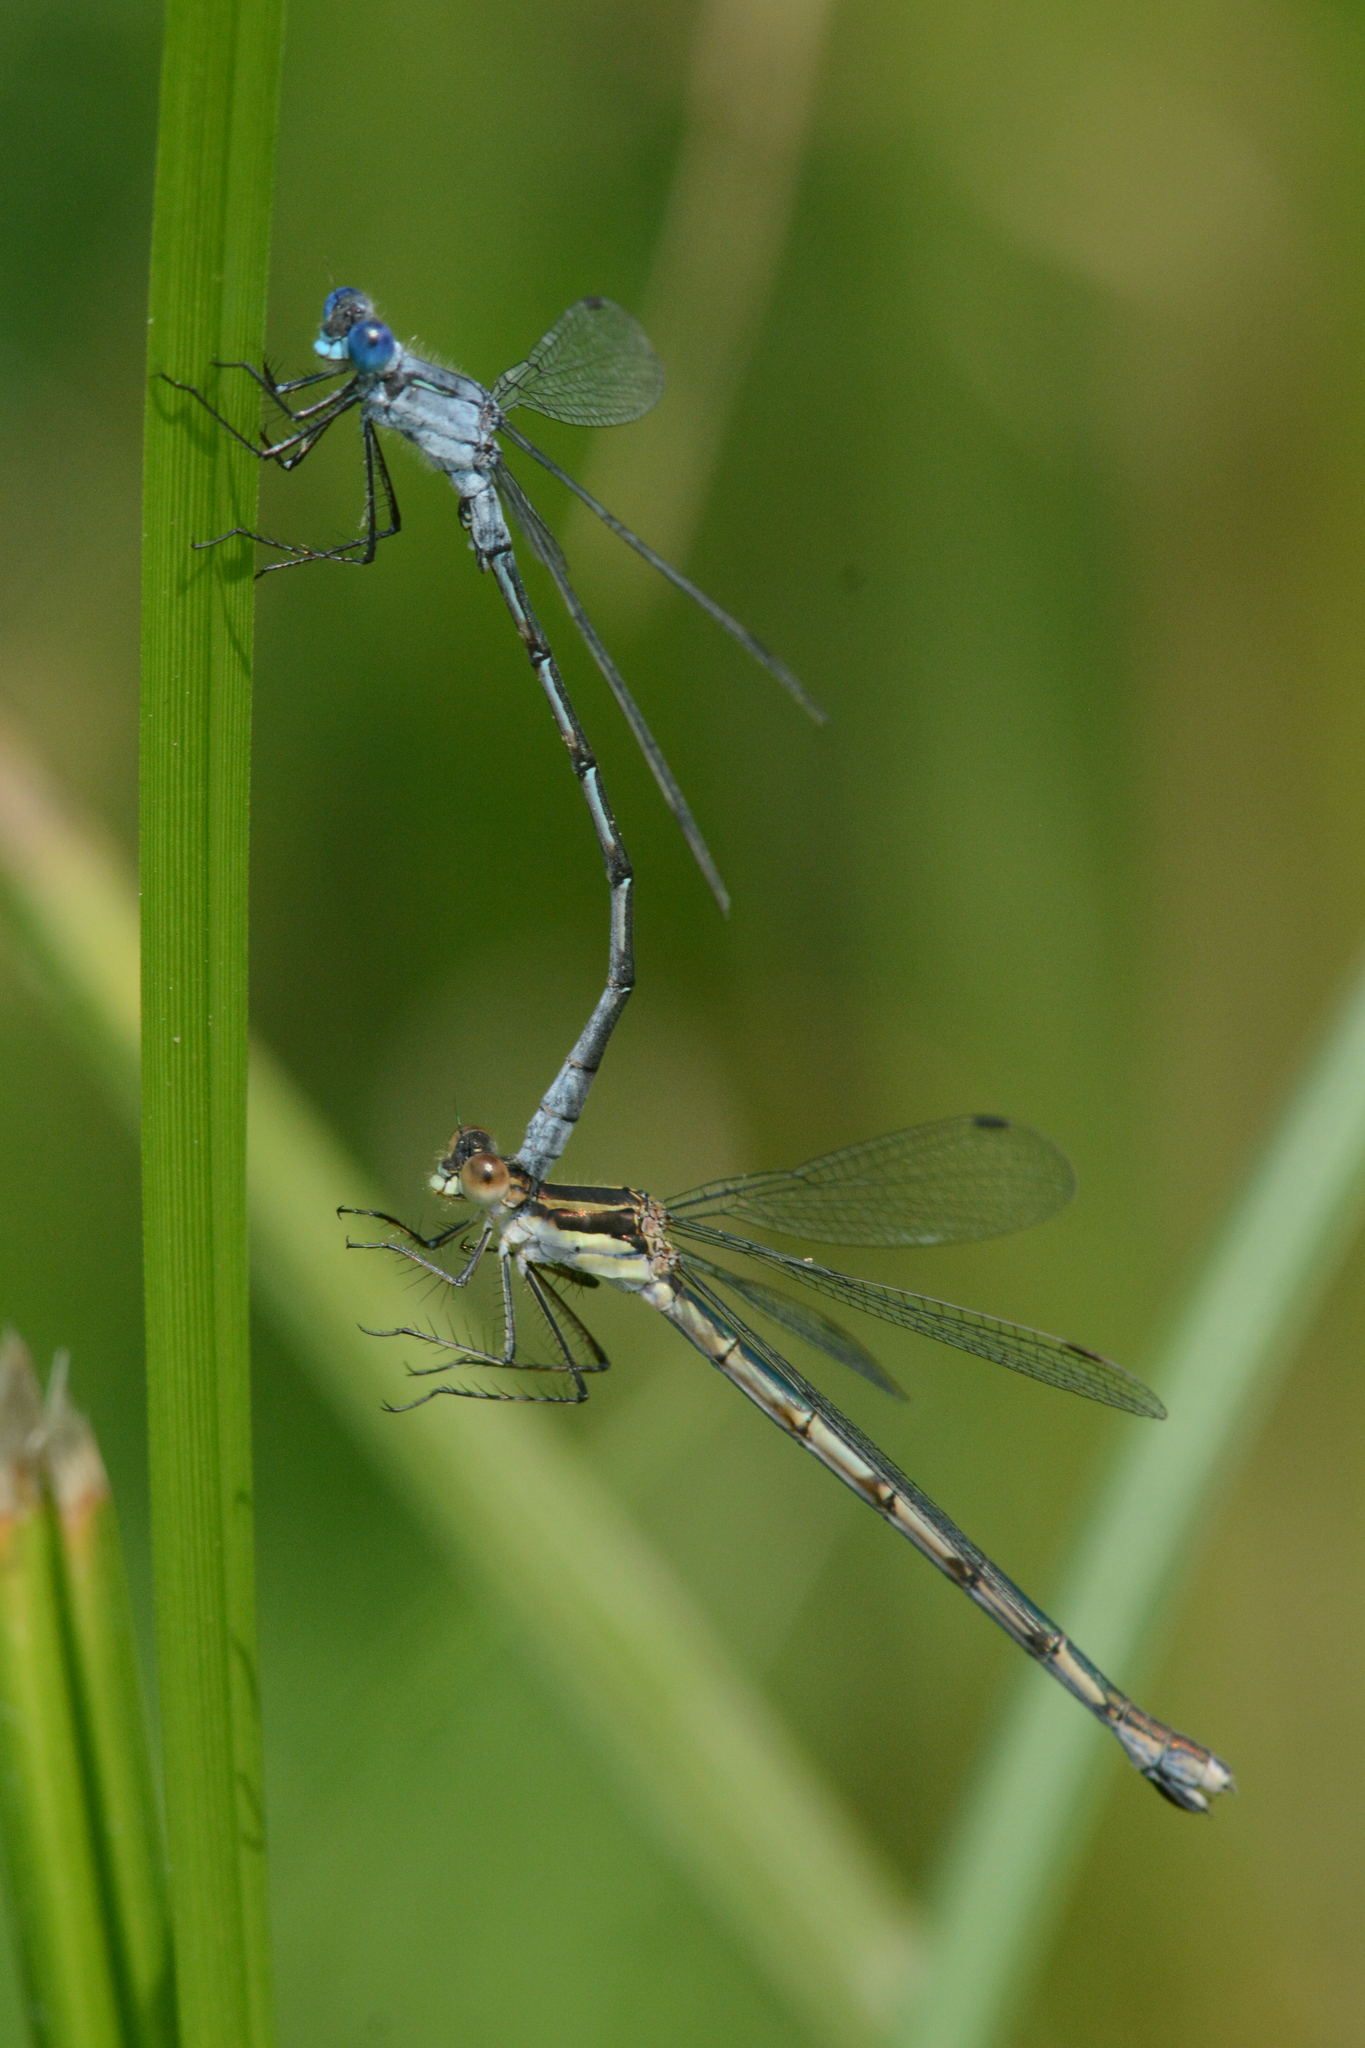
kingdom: Animalia
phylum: Arthropoda
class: Insecta
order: Odonata
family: Lestidae
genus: Lestes
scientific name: Lestes disjunctus
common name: Northern spreadwing
